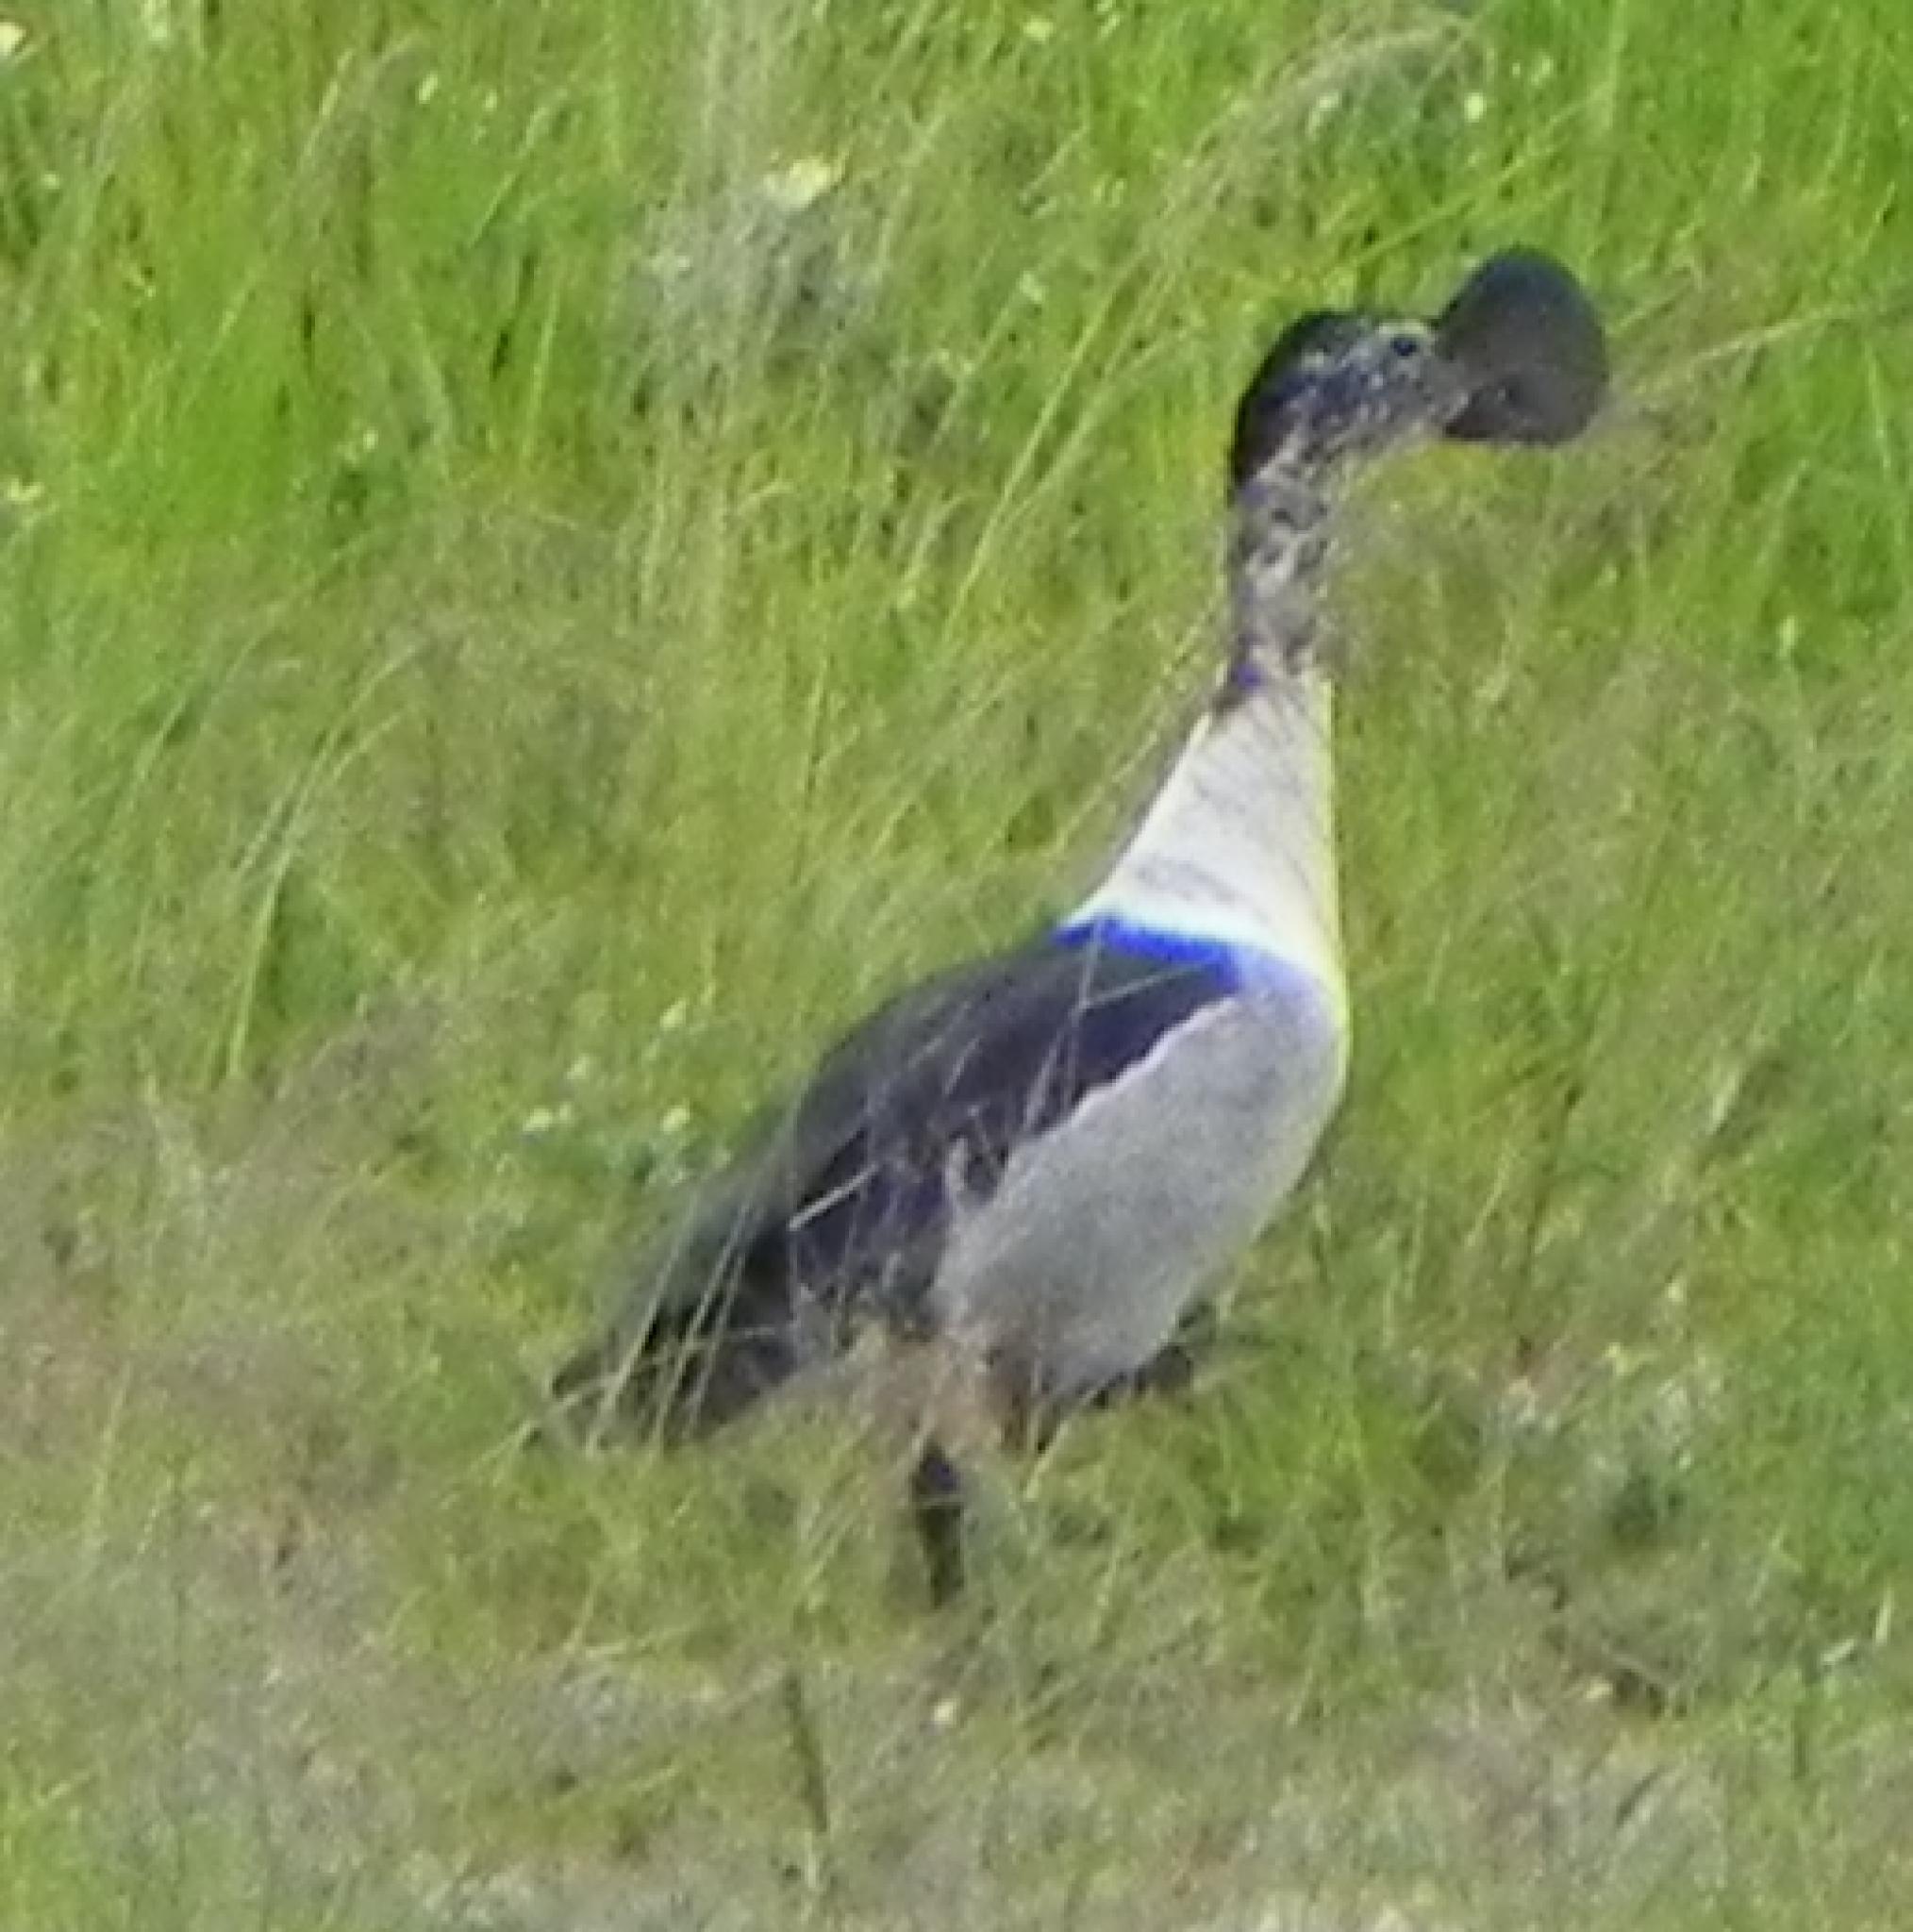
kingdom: Animalia
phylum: Chordata
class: Aves
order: Anseriformes
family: Anatidae
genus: Sarkidiornis
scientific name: Sarkidiornis melanotos
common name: Comb duck
